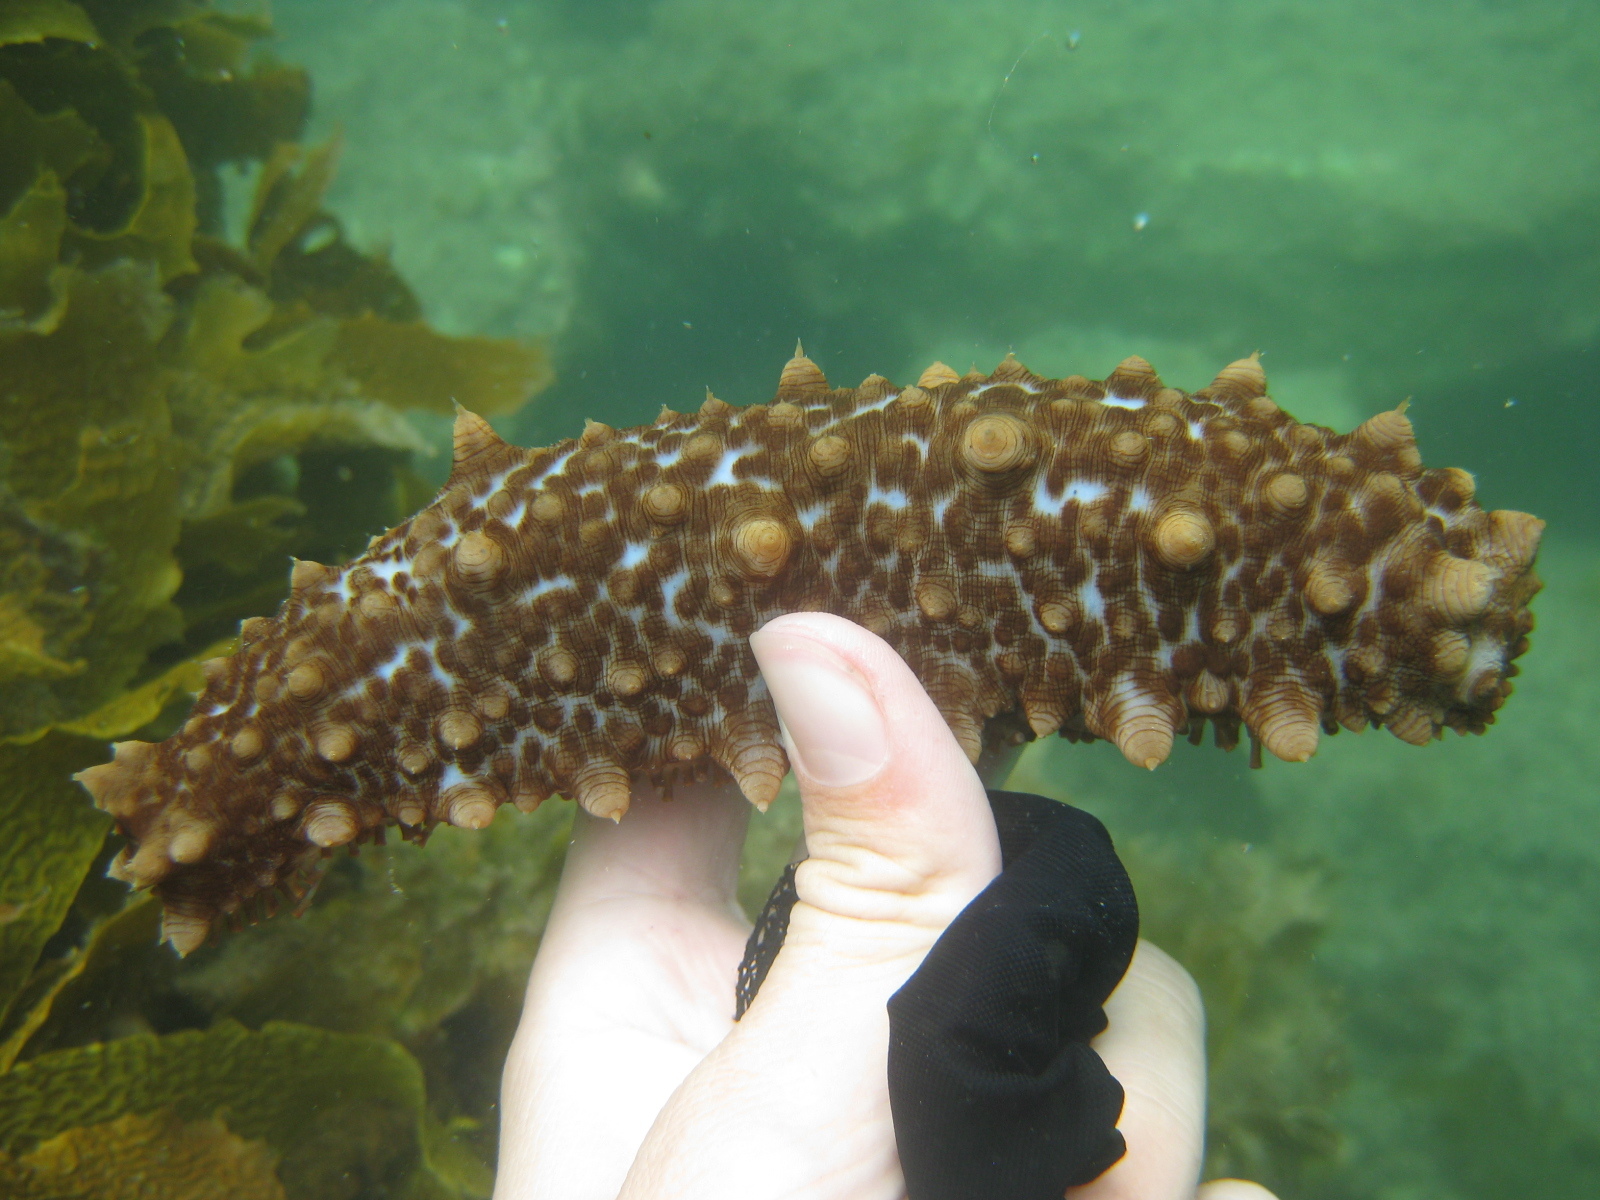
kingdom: Animalia
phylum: Echinodermata
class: Holothuroidea
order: Synallactida
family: Stichopodidae
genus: Australostichopus
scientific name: Australostichopus mollis
